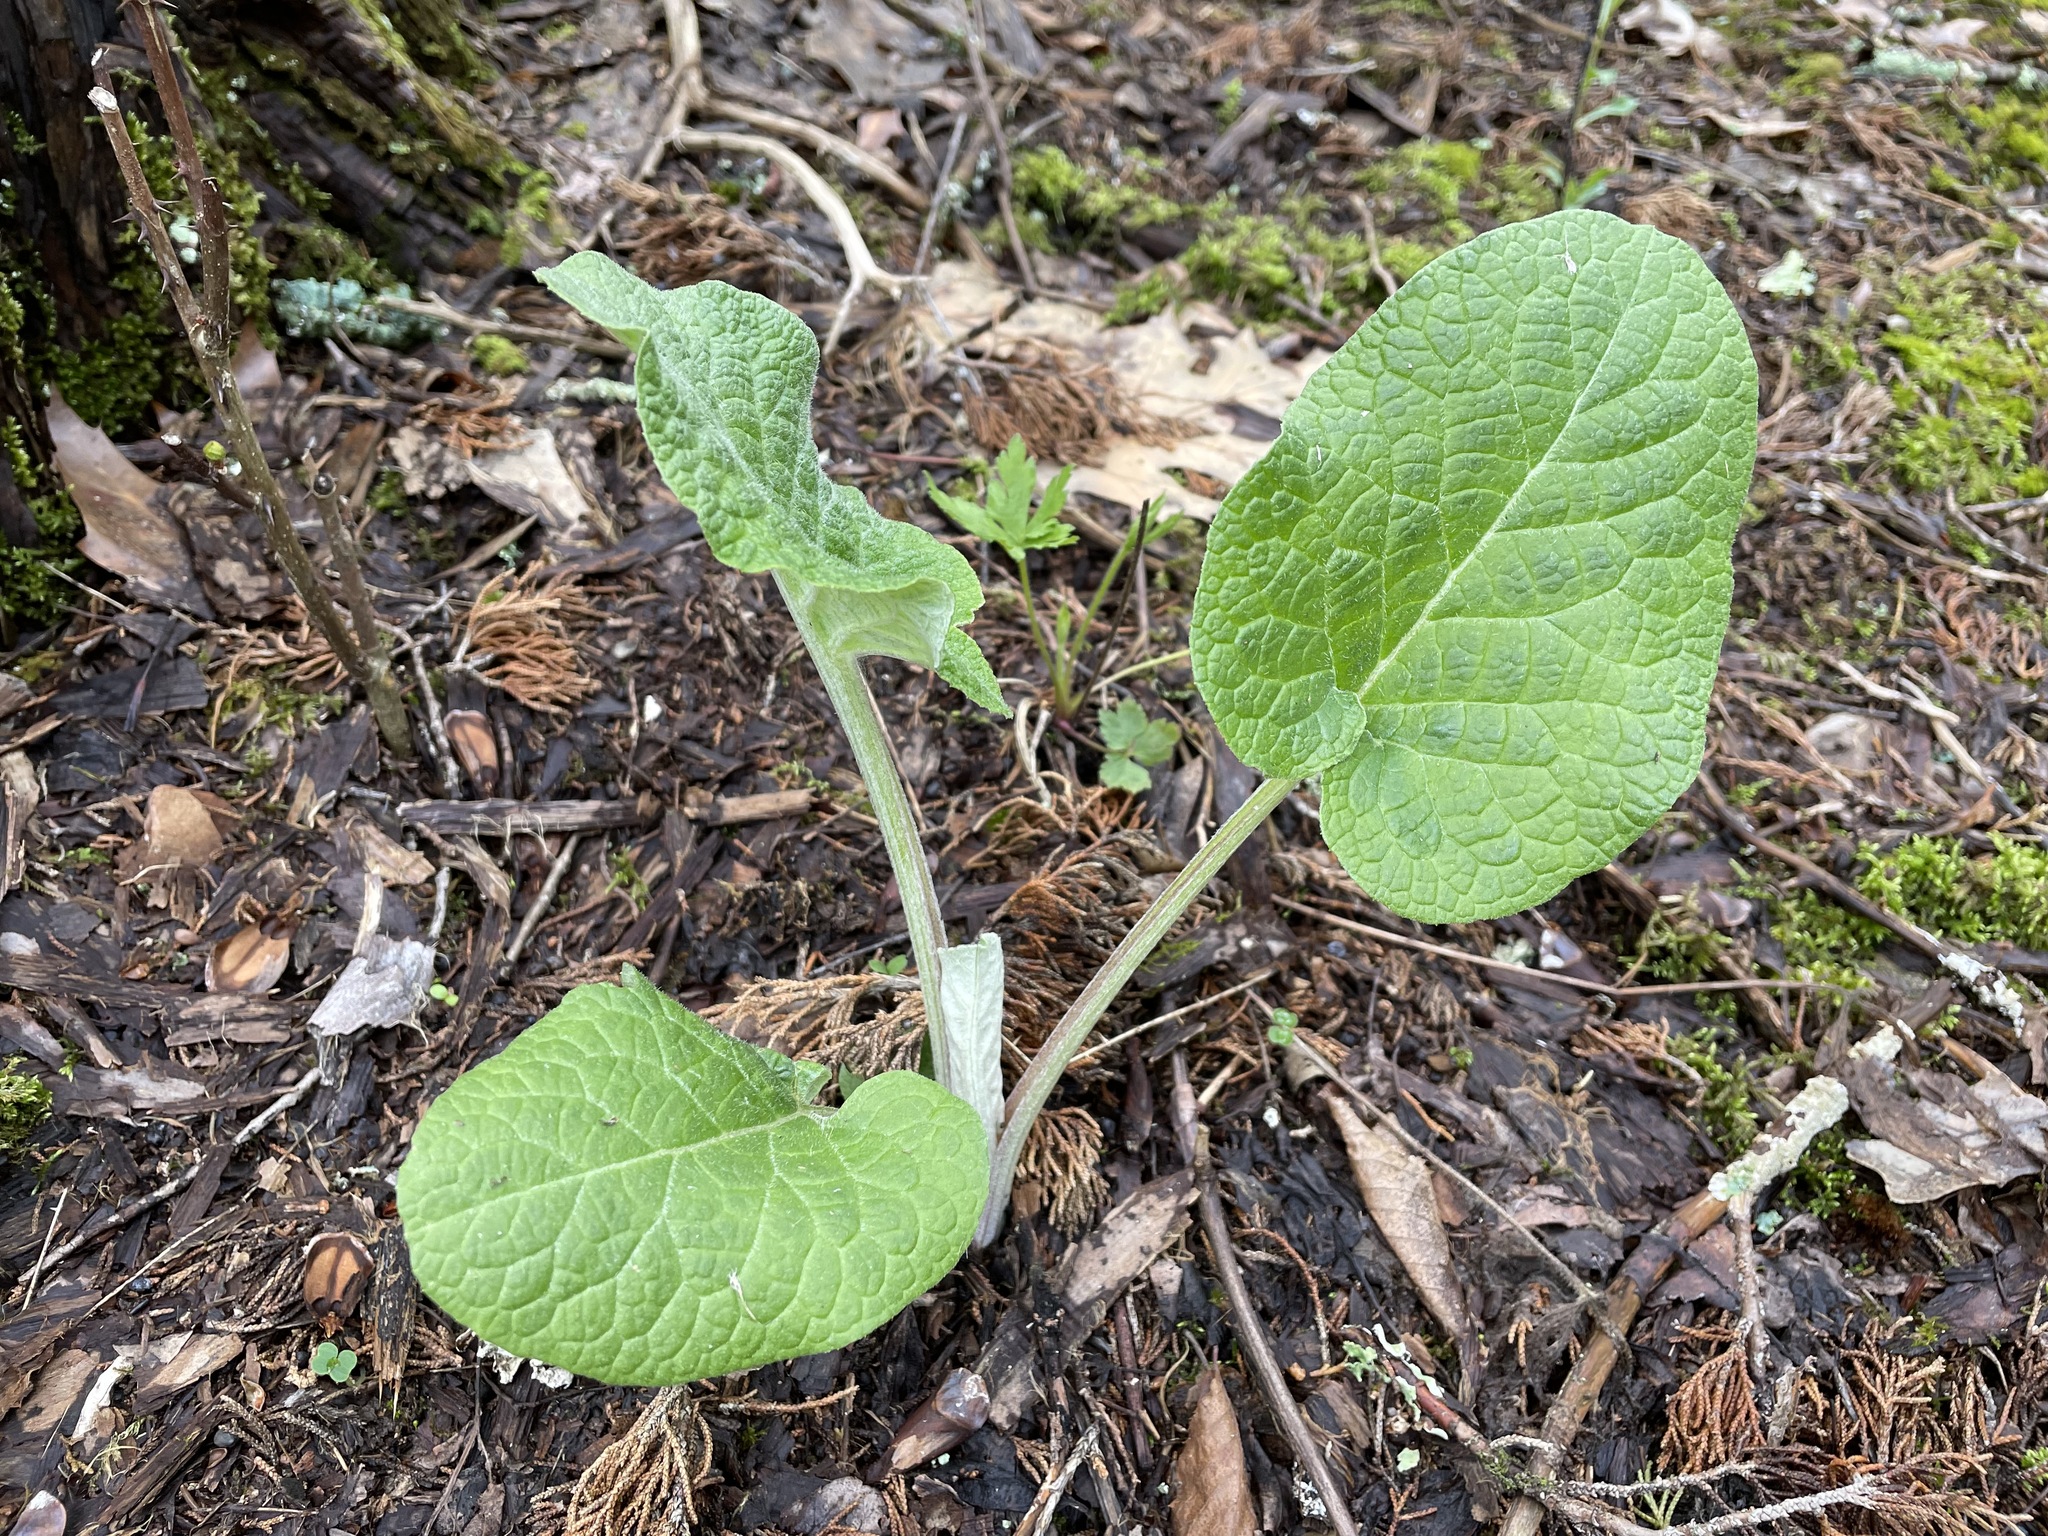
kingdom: Plantae
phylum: Tracheophyta
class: Magnoliopsida
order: Asterales
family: Asteraceae
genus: Arctium
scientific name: Arctium
